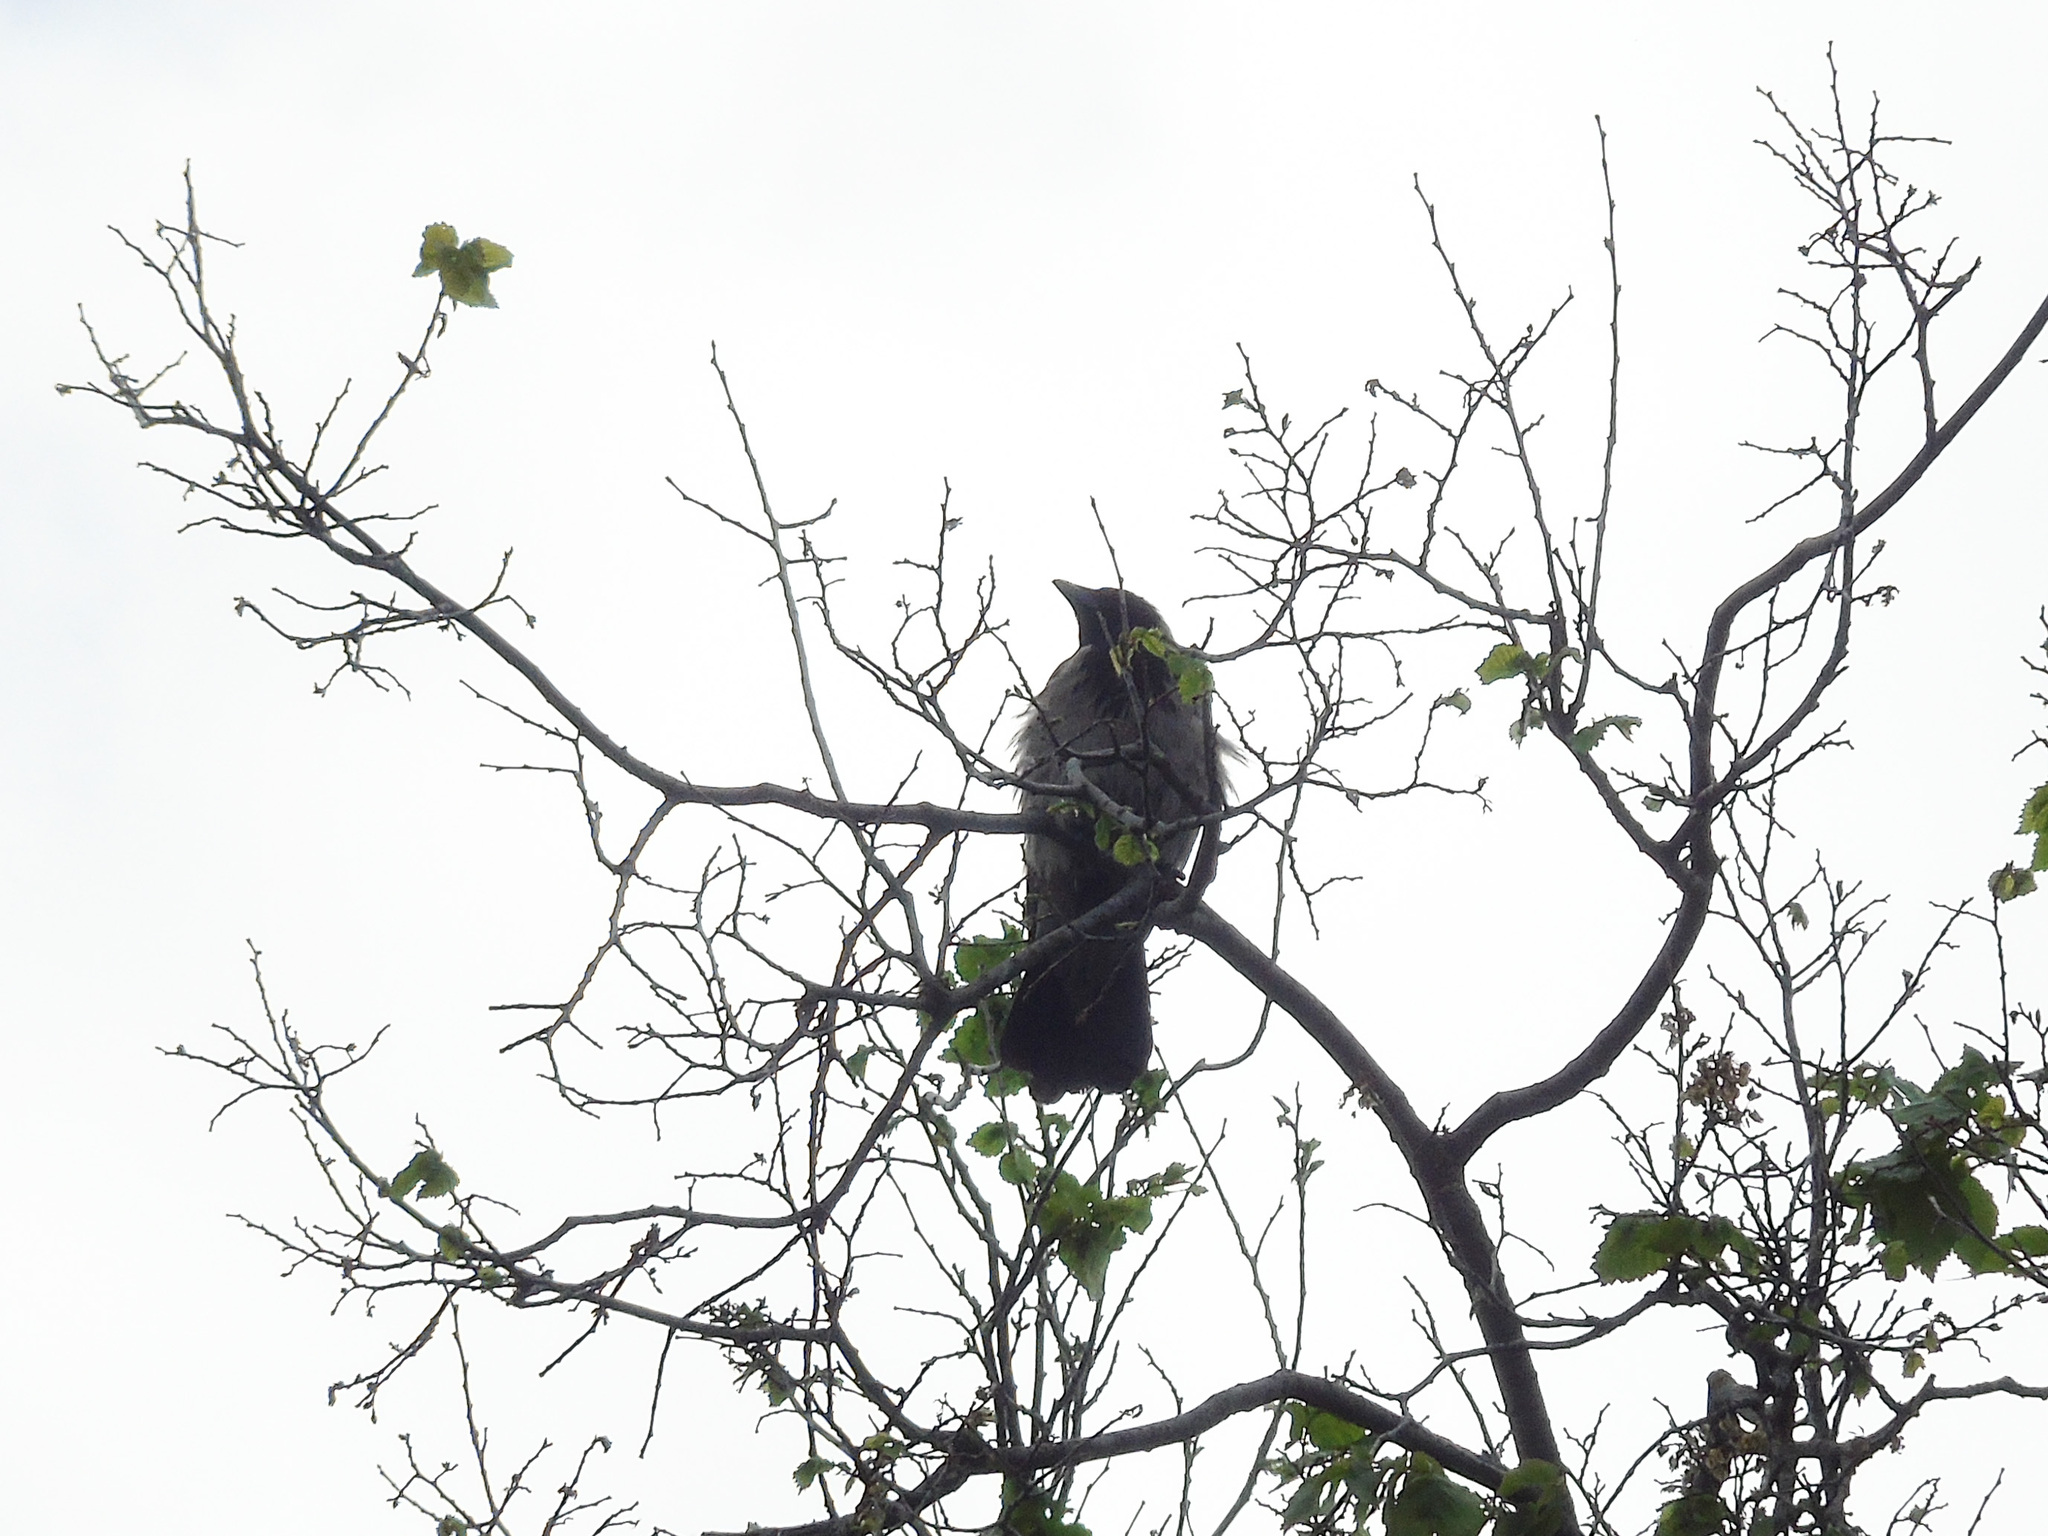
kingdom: Animalia
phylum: Chordata
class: Aves
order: Passeriformes
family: Corvidae
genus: Corvus
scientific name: Corvus cornix
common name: Hooded crow
